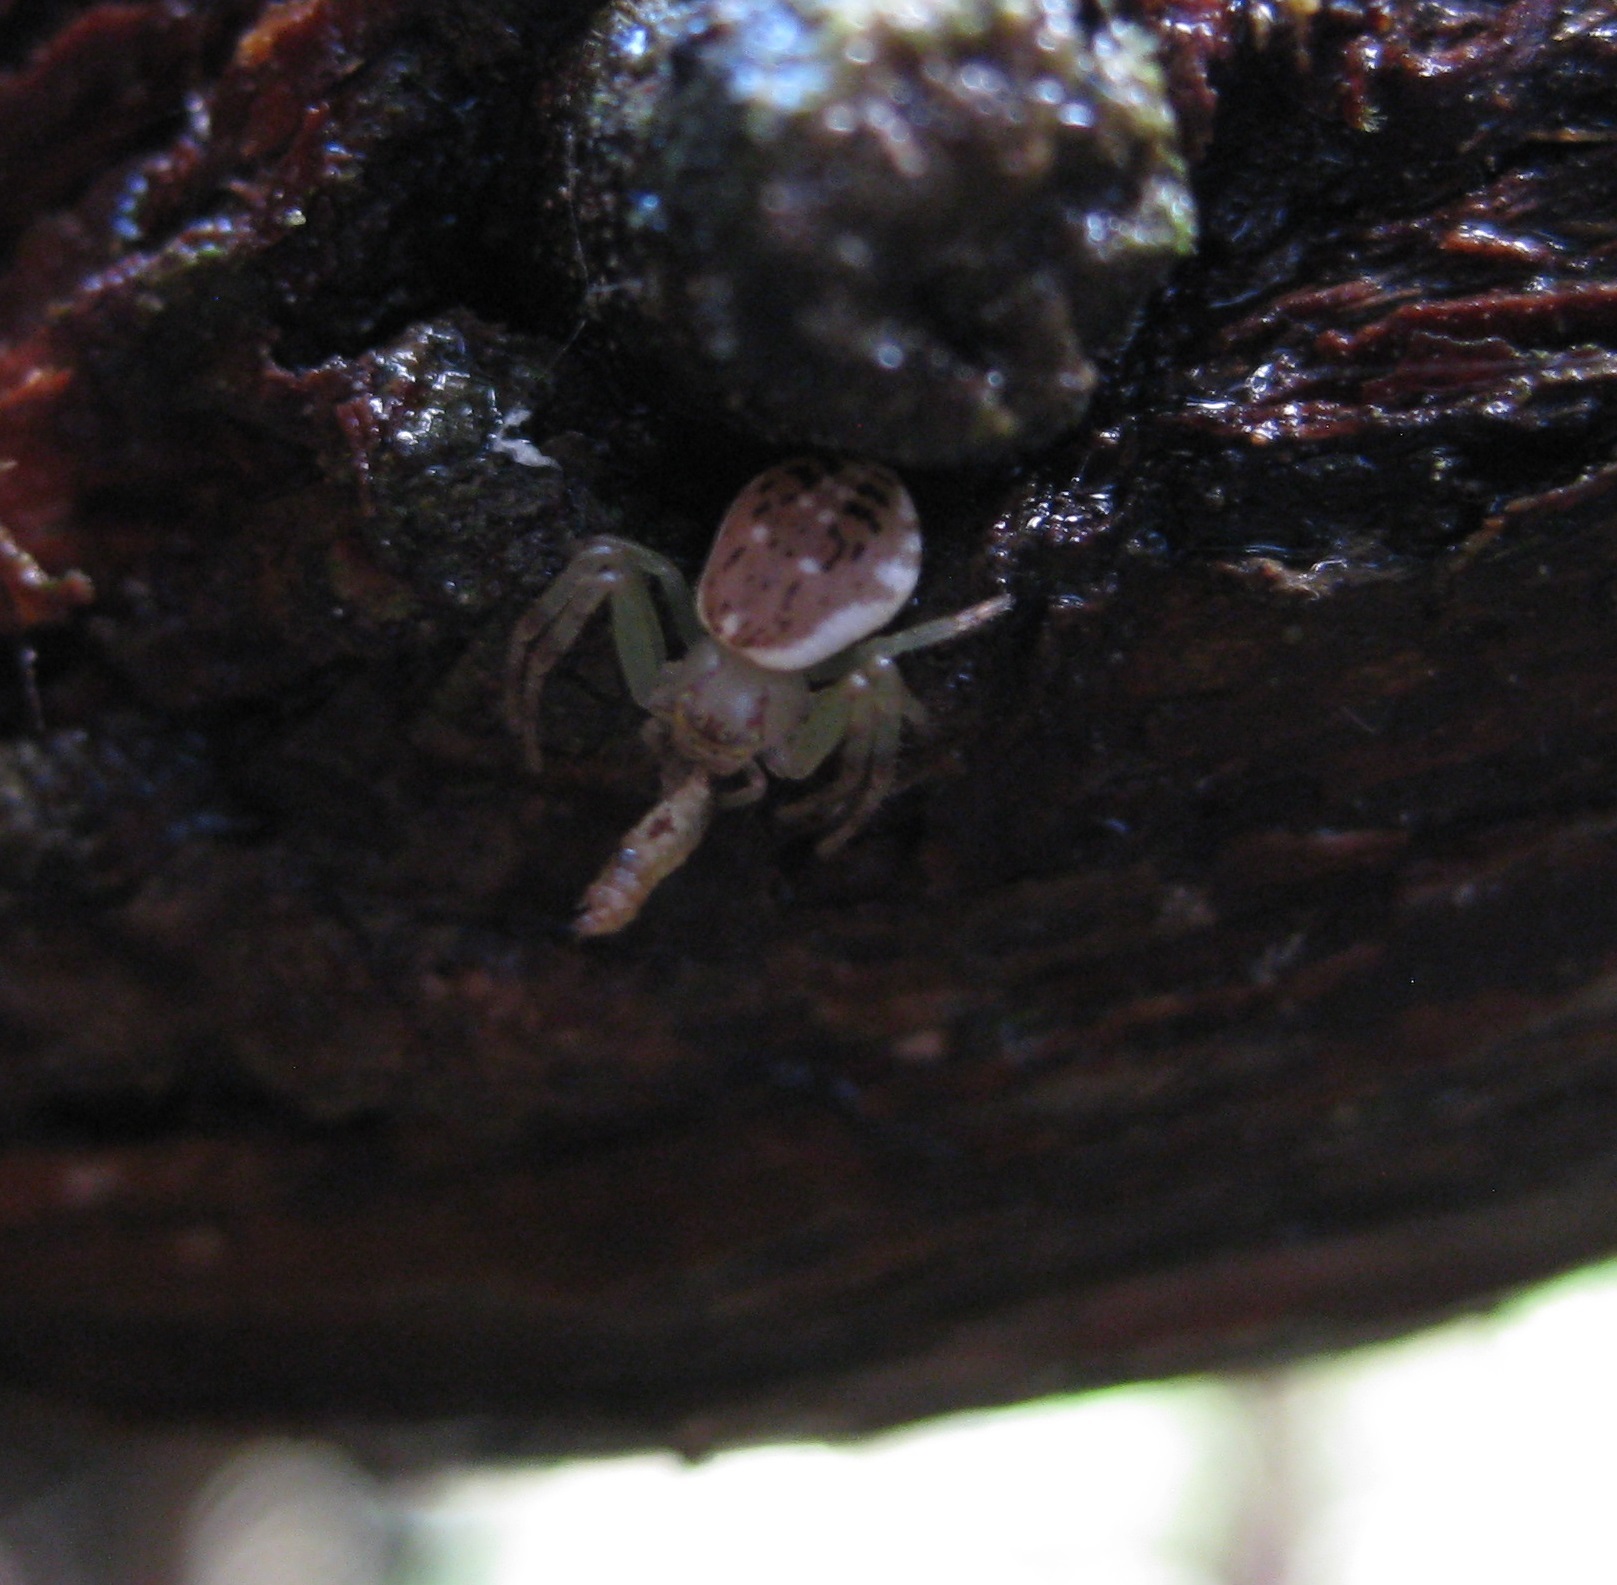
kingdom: Animalia
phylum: Arthropoda
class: Arachnida
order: Araneae
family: Thomisidae
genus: Diaea
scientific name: Diaea ambara
